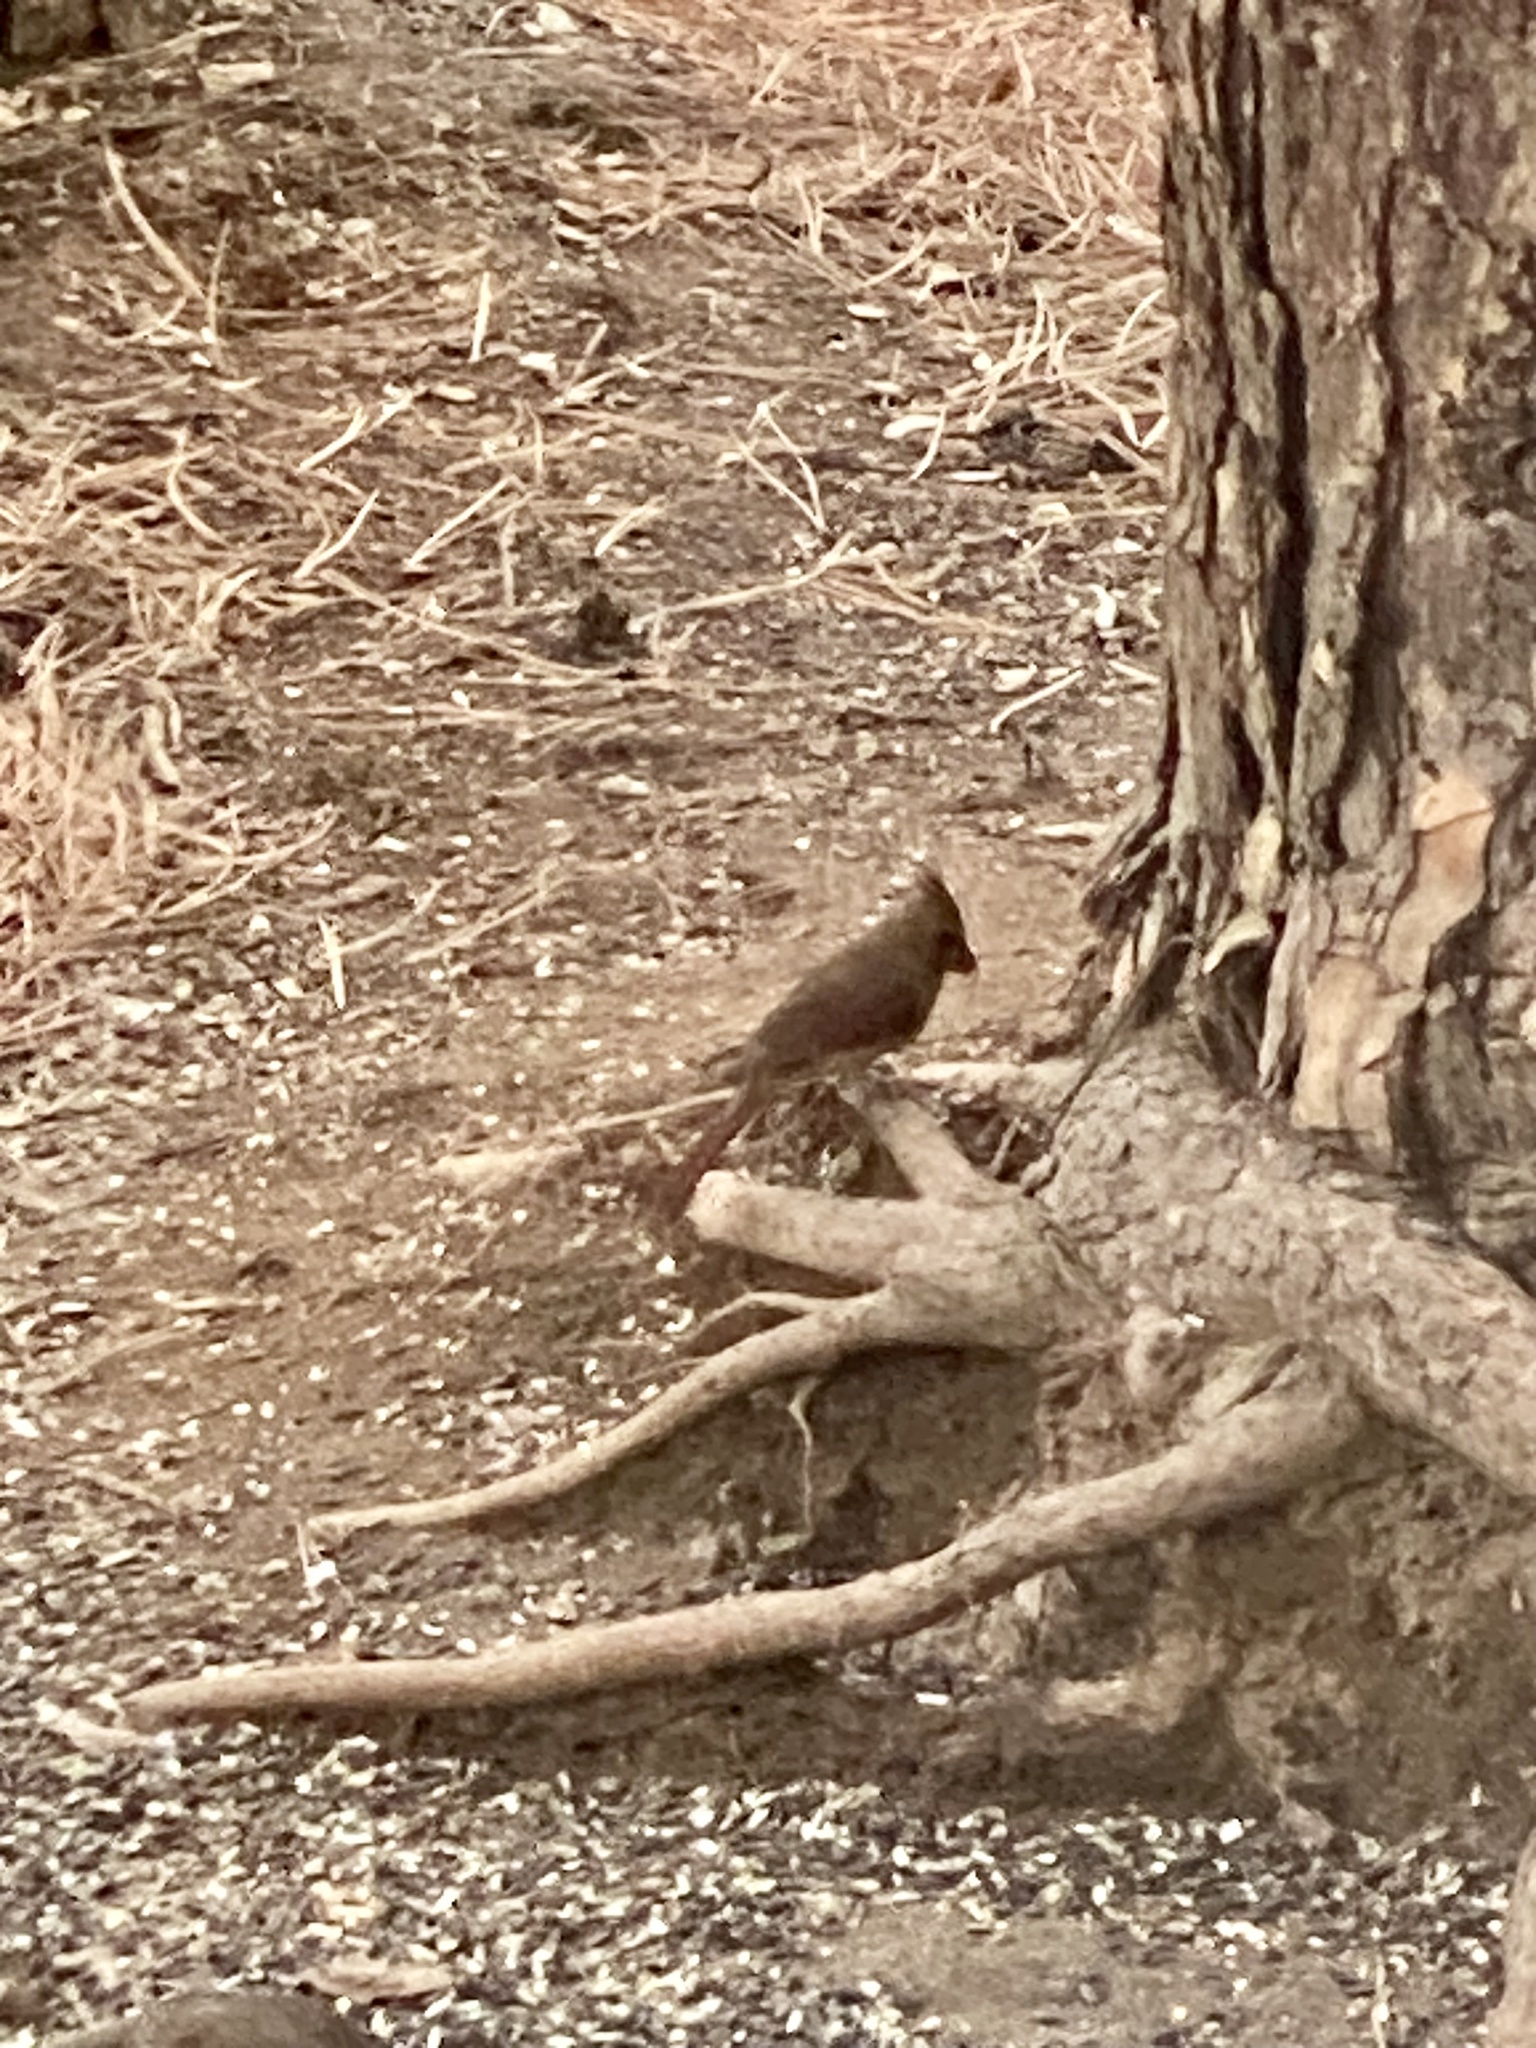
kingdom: Animalia
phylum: Chordata
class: Aves
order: Passeriformes
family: Cardinalidae
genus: Cardinalis
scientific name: Cardinalis cardinalis
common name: Northern cardinal
